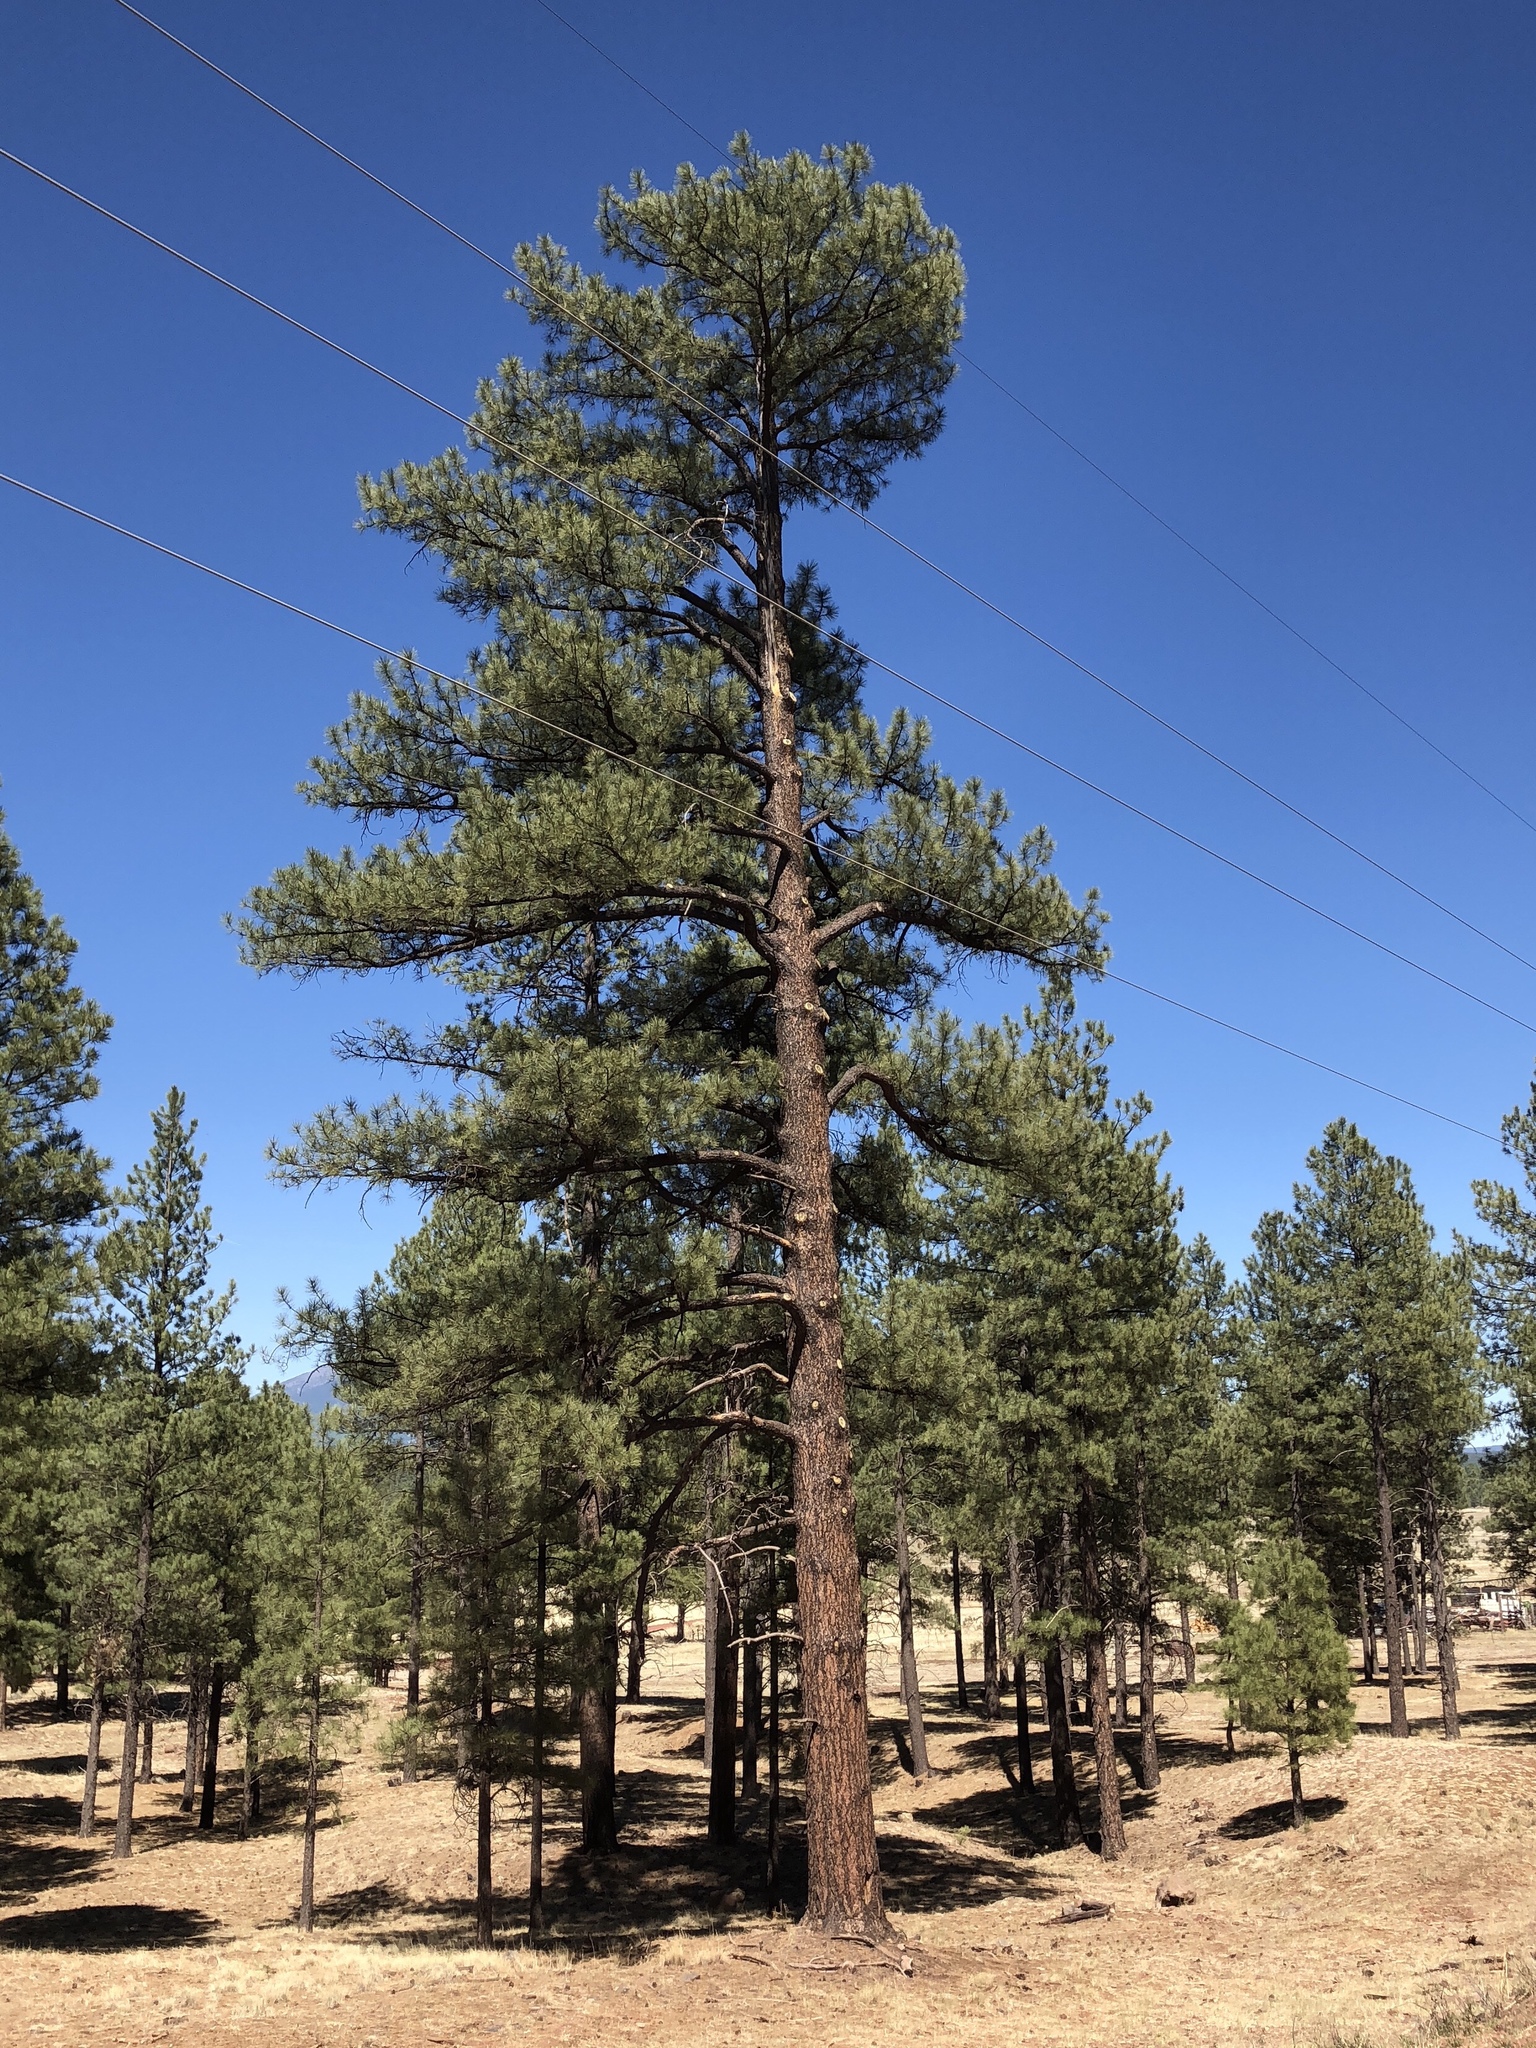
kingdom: Plantae
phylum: Tracheophyta
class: Pinopsida
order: Pinales
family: Pinaceae
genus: Pinus
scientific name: Pinus ponderosa
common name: Western yellow-pine
